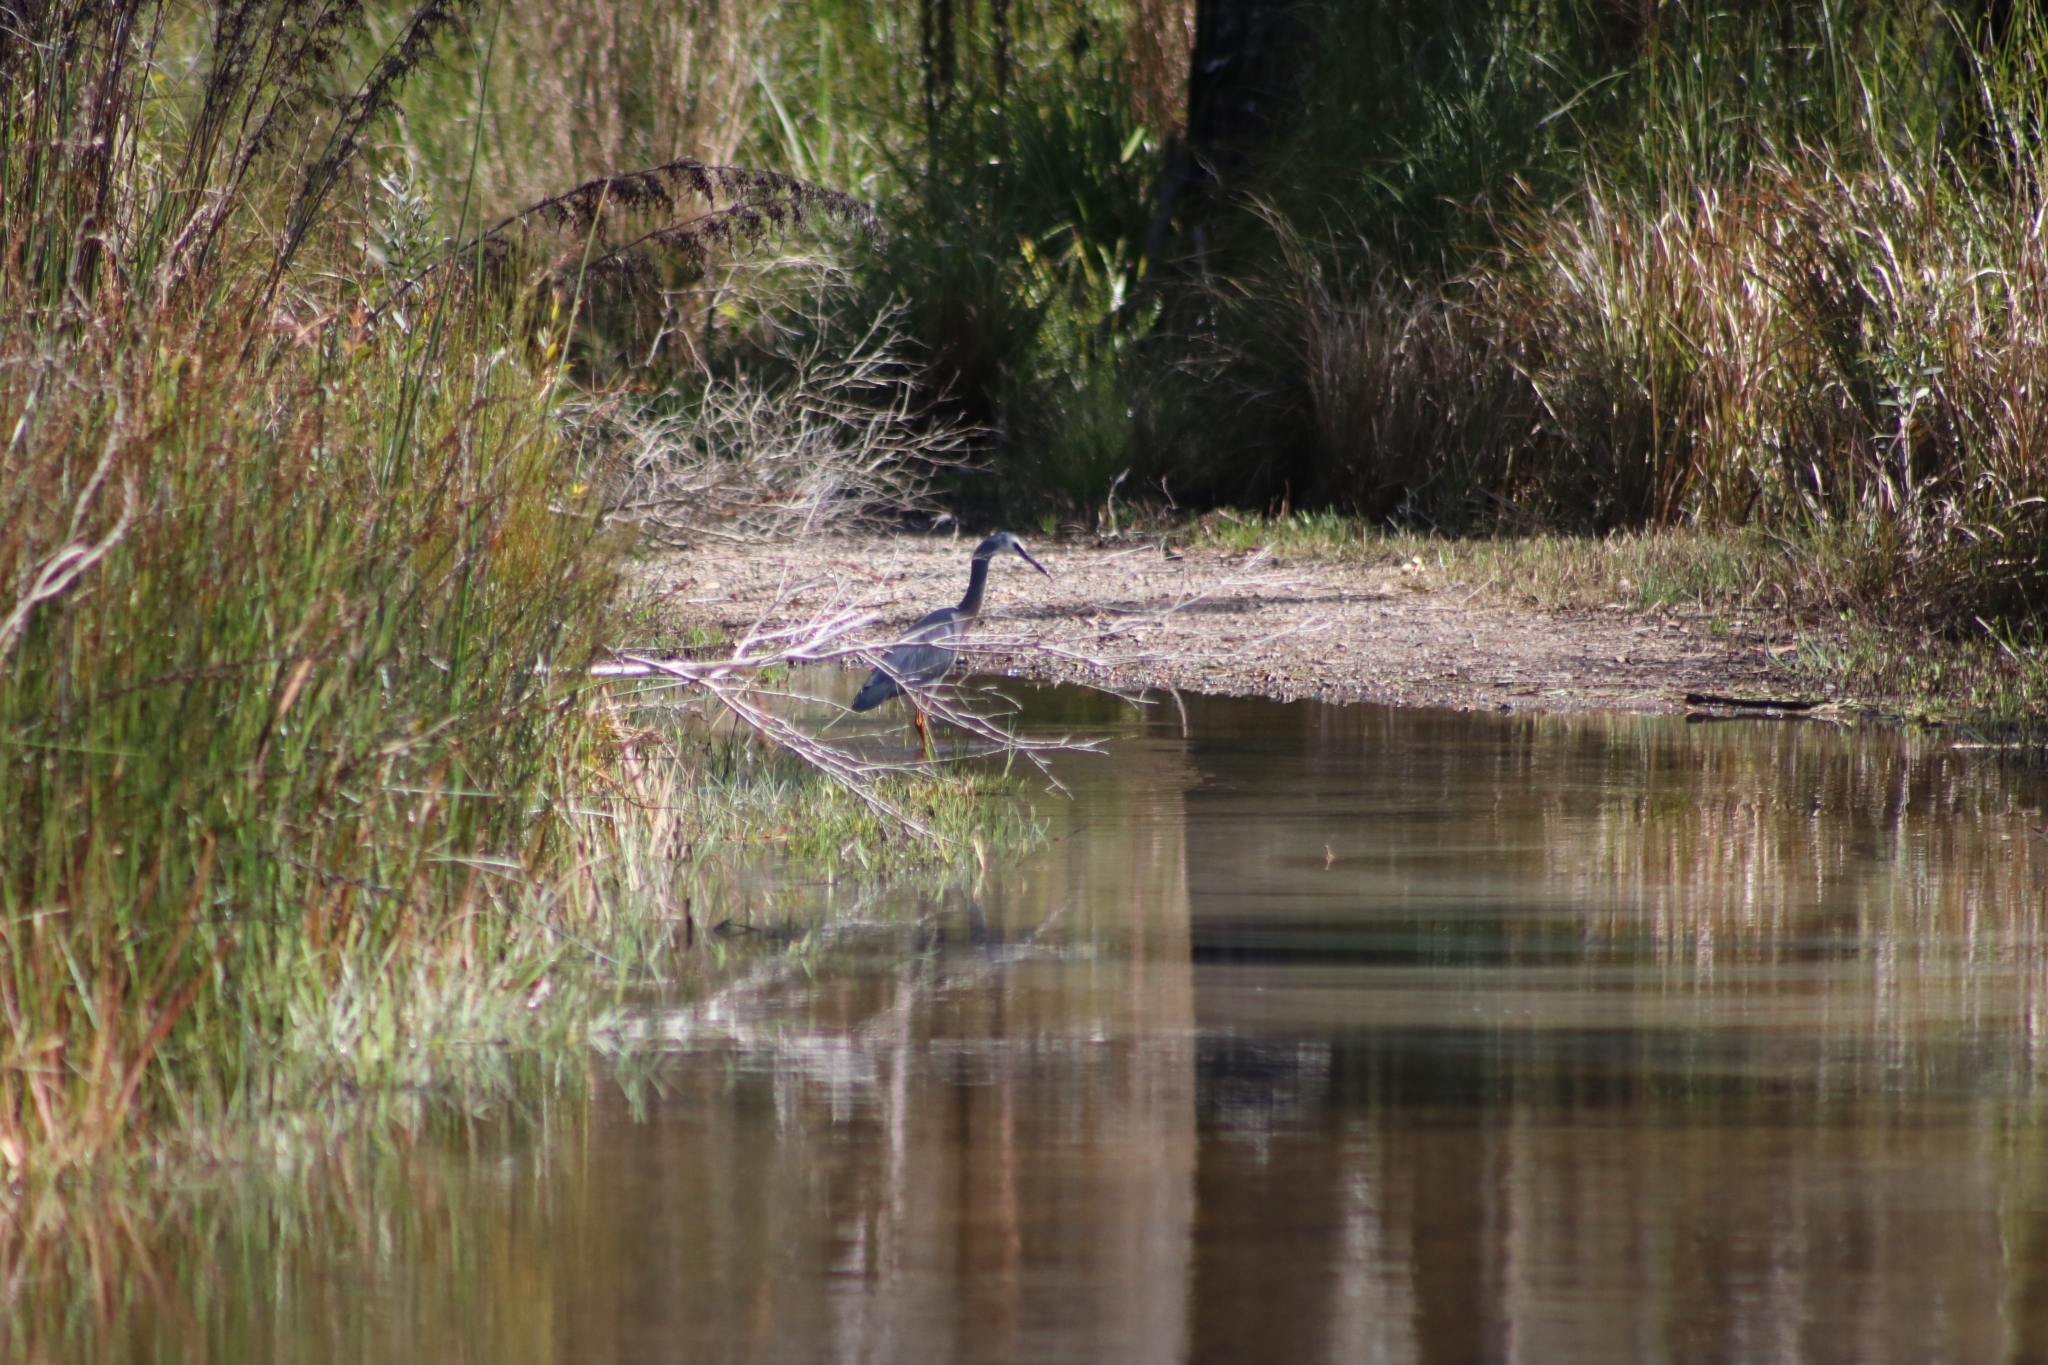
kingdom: Animalia
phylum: Chordata
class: Aves
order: Pelecaniformes
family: Ardeidae
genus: Egretta
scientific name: Egretta novaehollandiae
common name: White-faced heron
